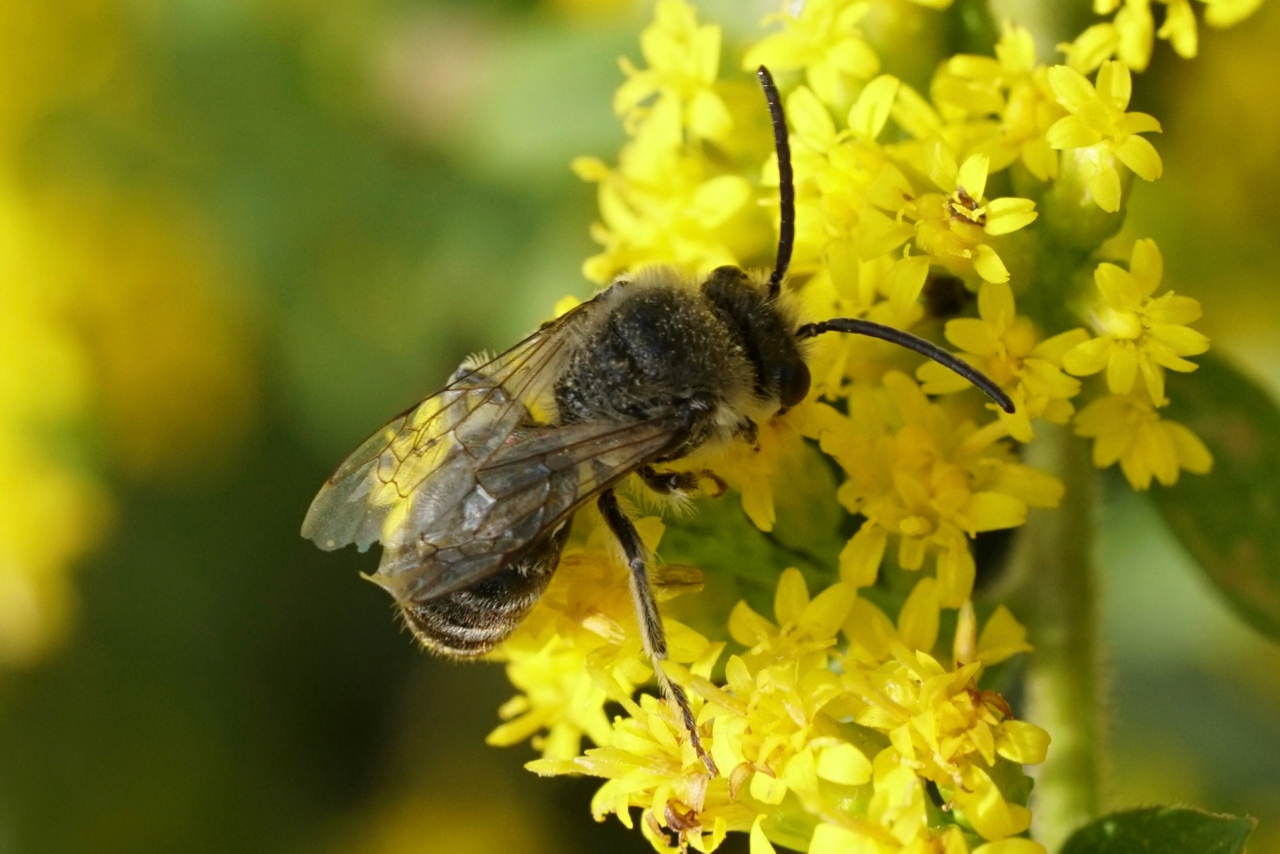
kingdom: Animalia
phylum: Arthropoda
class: Insecta
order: Hymenoptera
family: Colletidae
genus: Colletes
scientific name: Colletes
